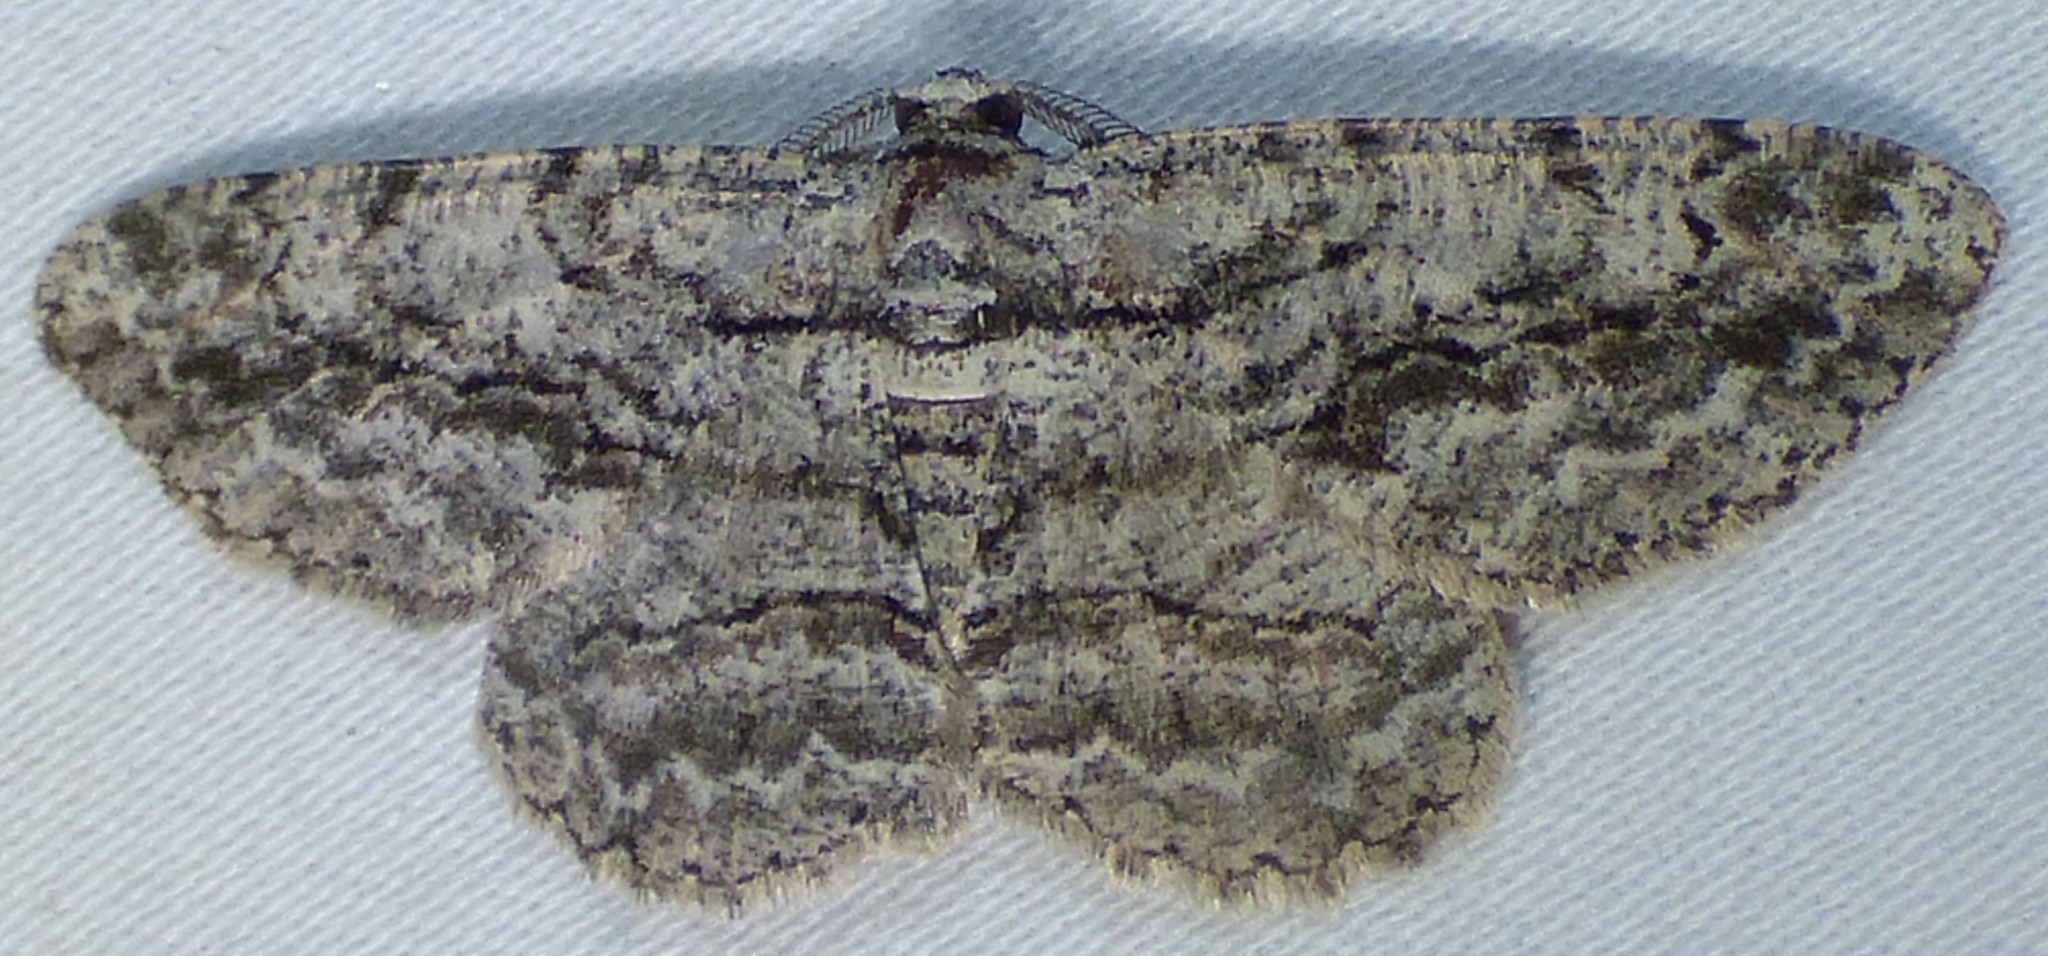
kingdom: Animalia
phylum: Arthropoda
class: Insecta
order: Lepidoptera
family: Geometridae
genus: Anavitrinella
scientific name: Anavitrinella pampinaria
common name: Common gray
